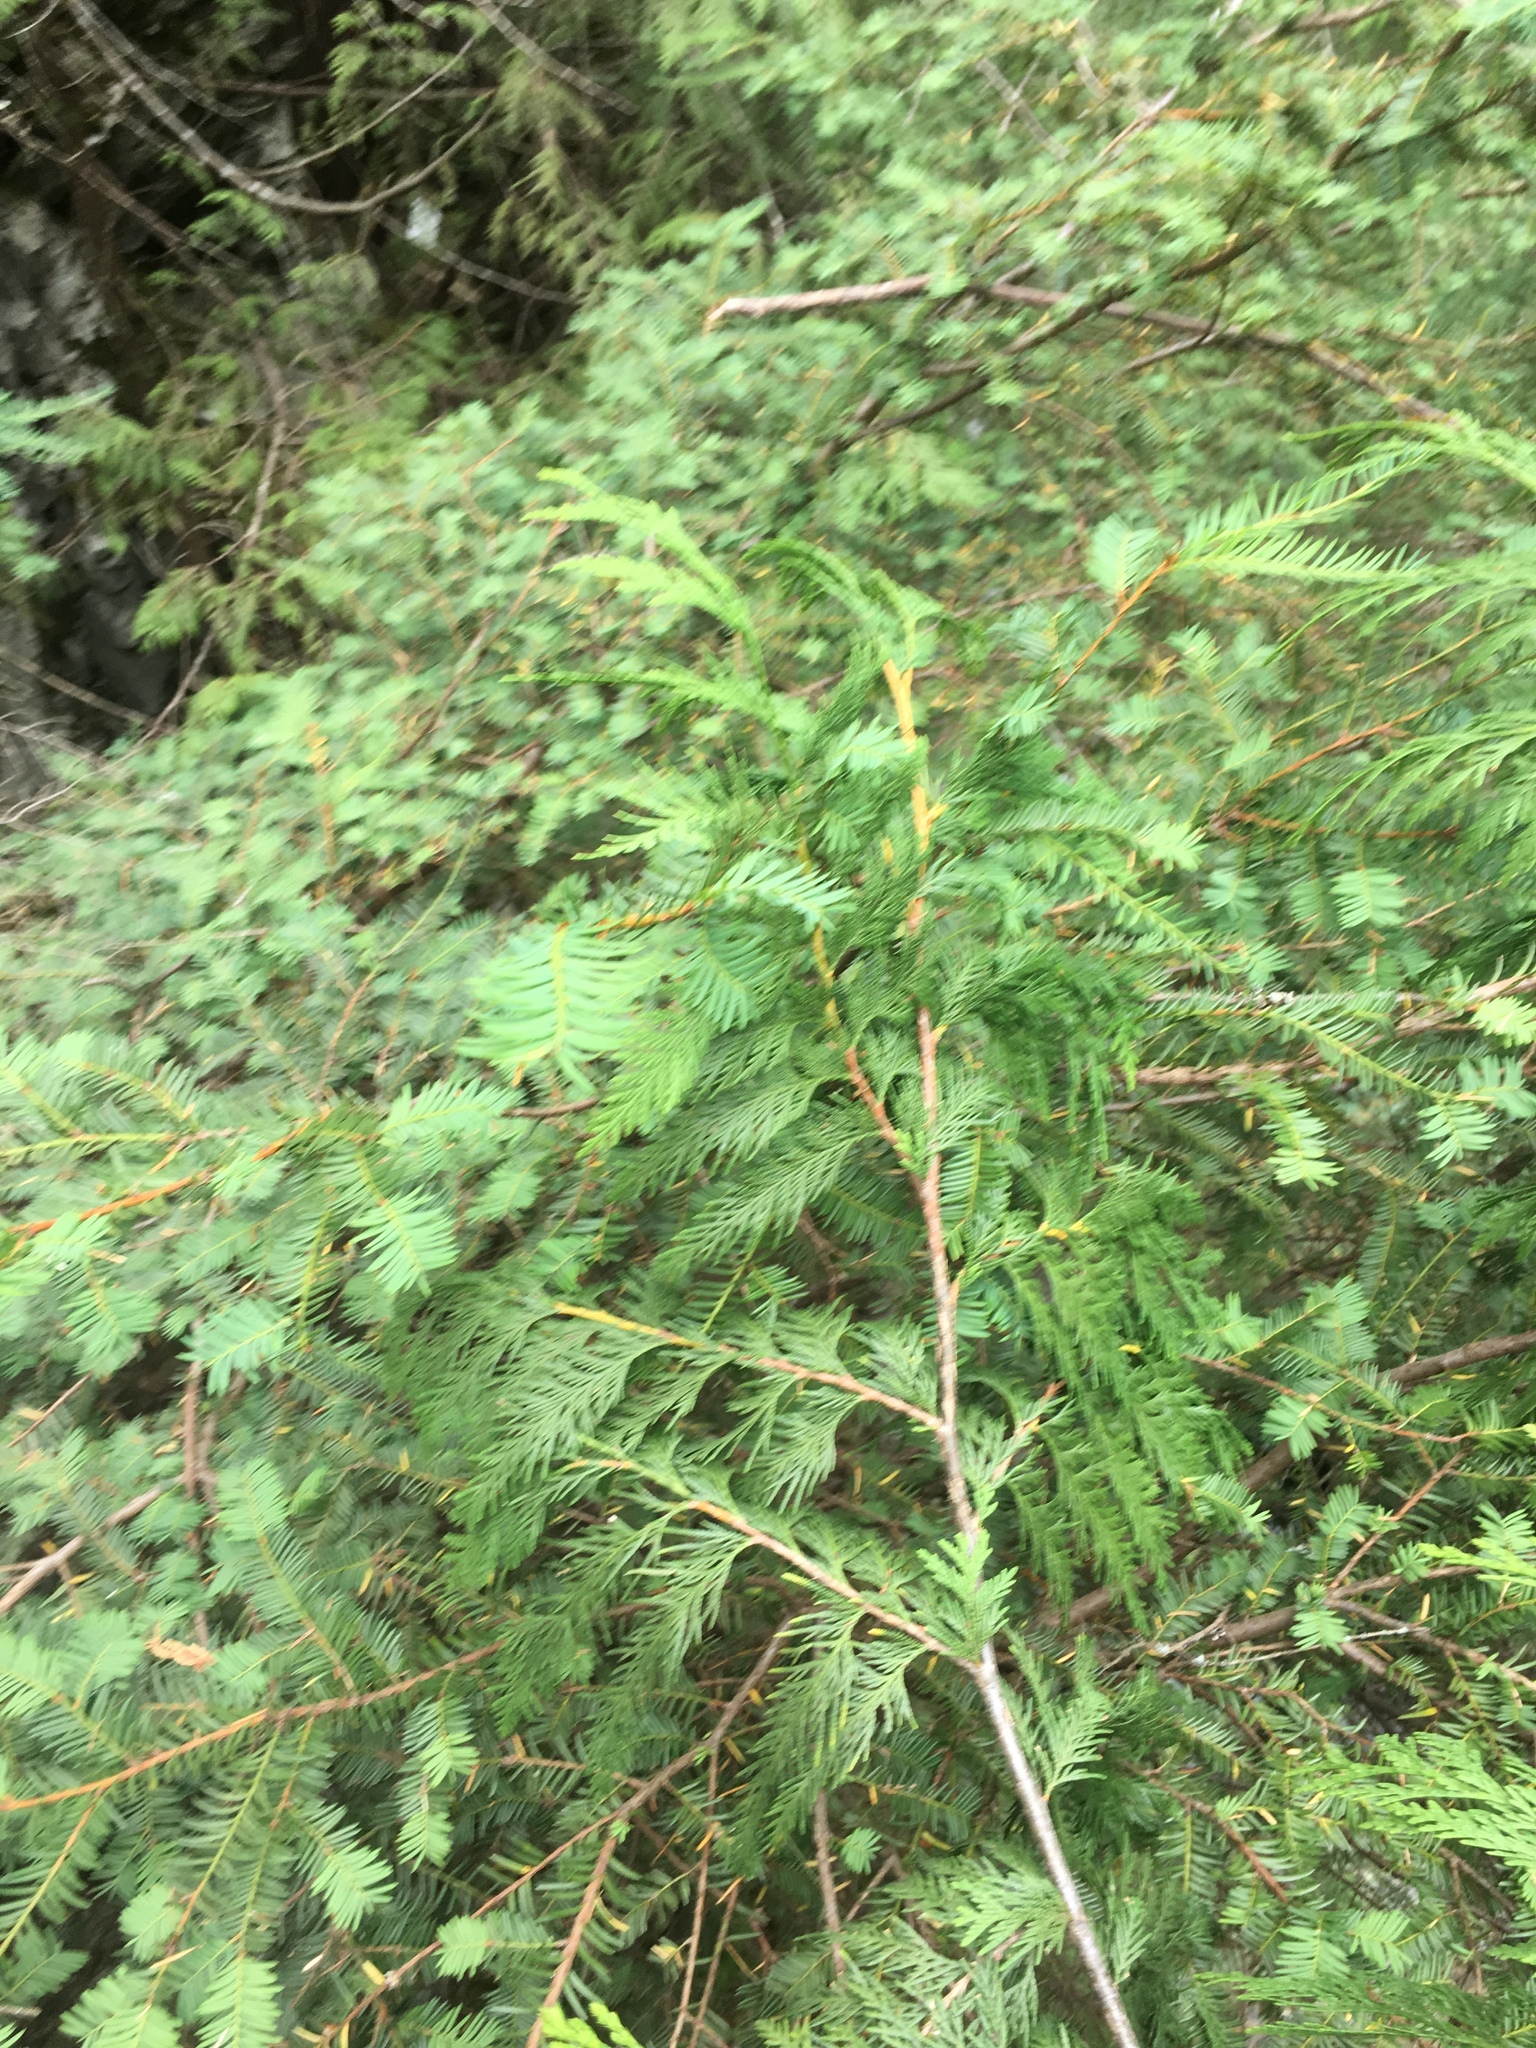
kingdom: Plantae
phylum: Tracheophyta
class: Pinopsida
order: Pinales
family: Cupressaceae
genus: Thuja
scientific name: Thuja plicata
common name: Western red-cedar
